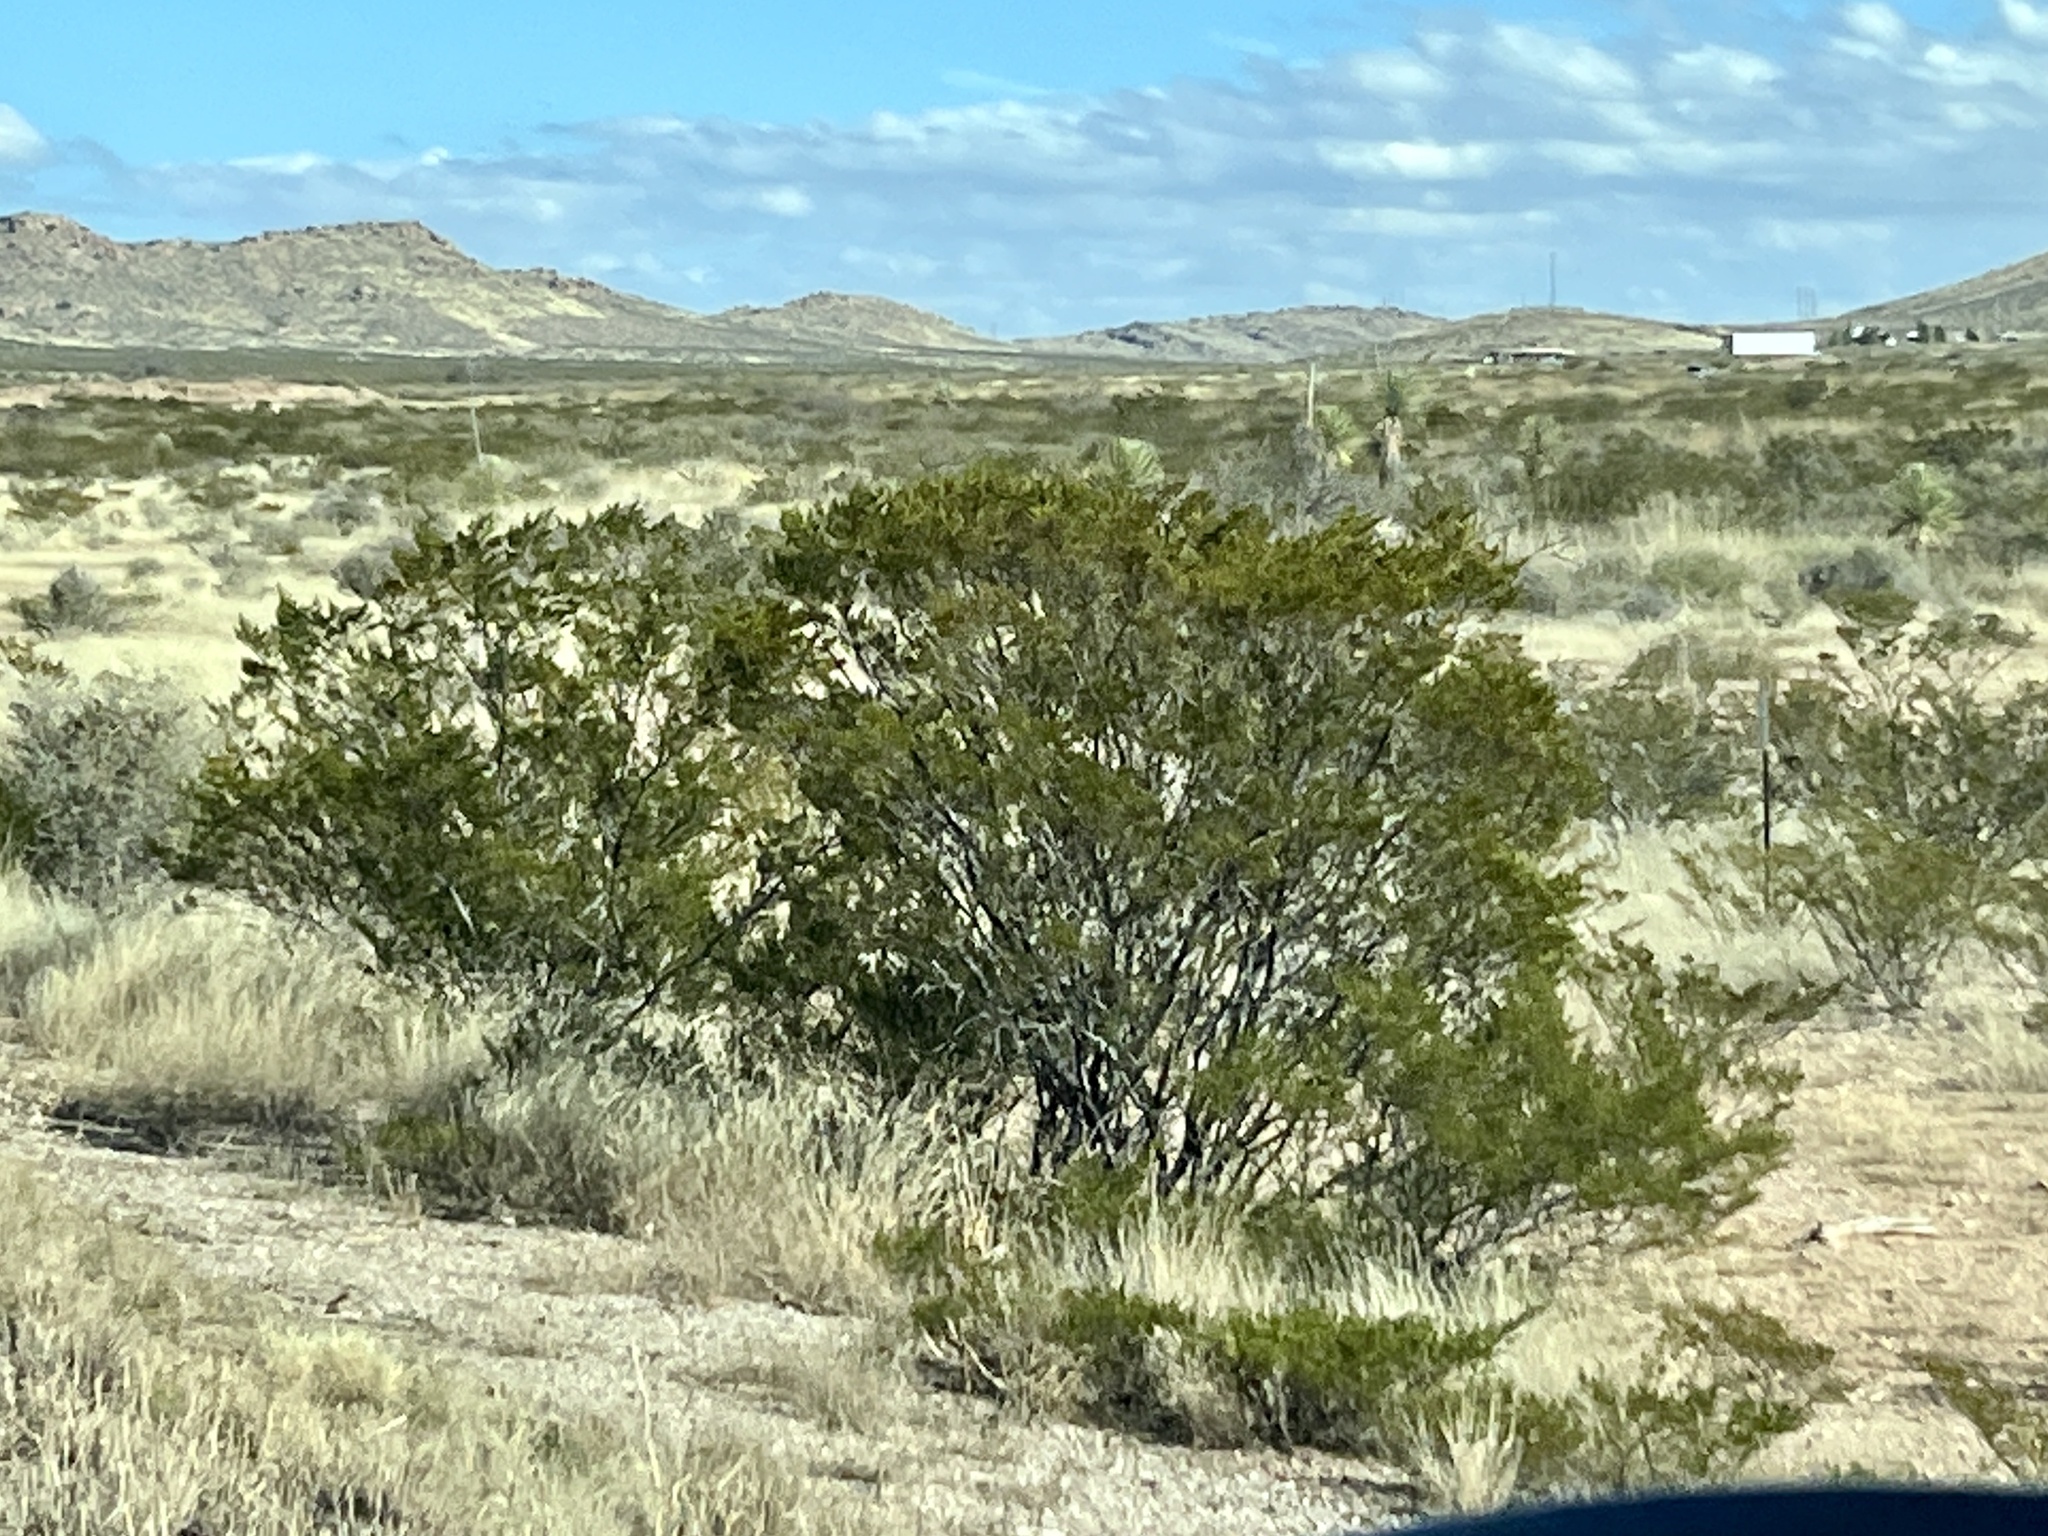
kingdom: Plantae
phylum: Tracheophyta
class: Magnoliopsida
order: Zygophyllales
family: Zygophyllaceae
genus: Larrea
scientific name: Larrea tridentata
